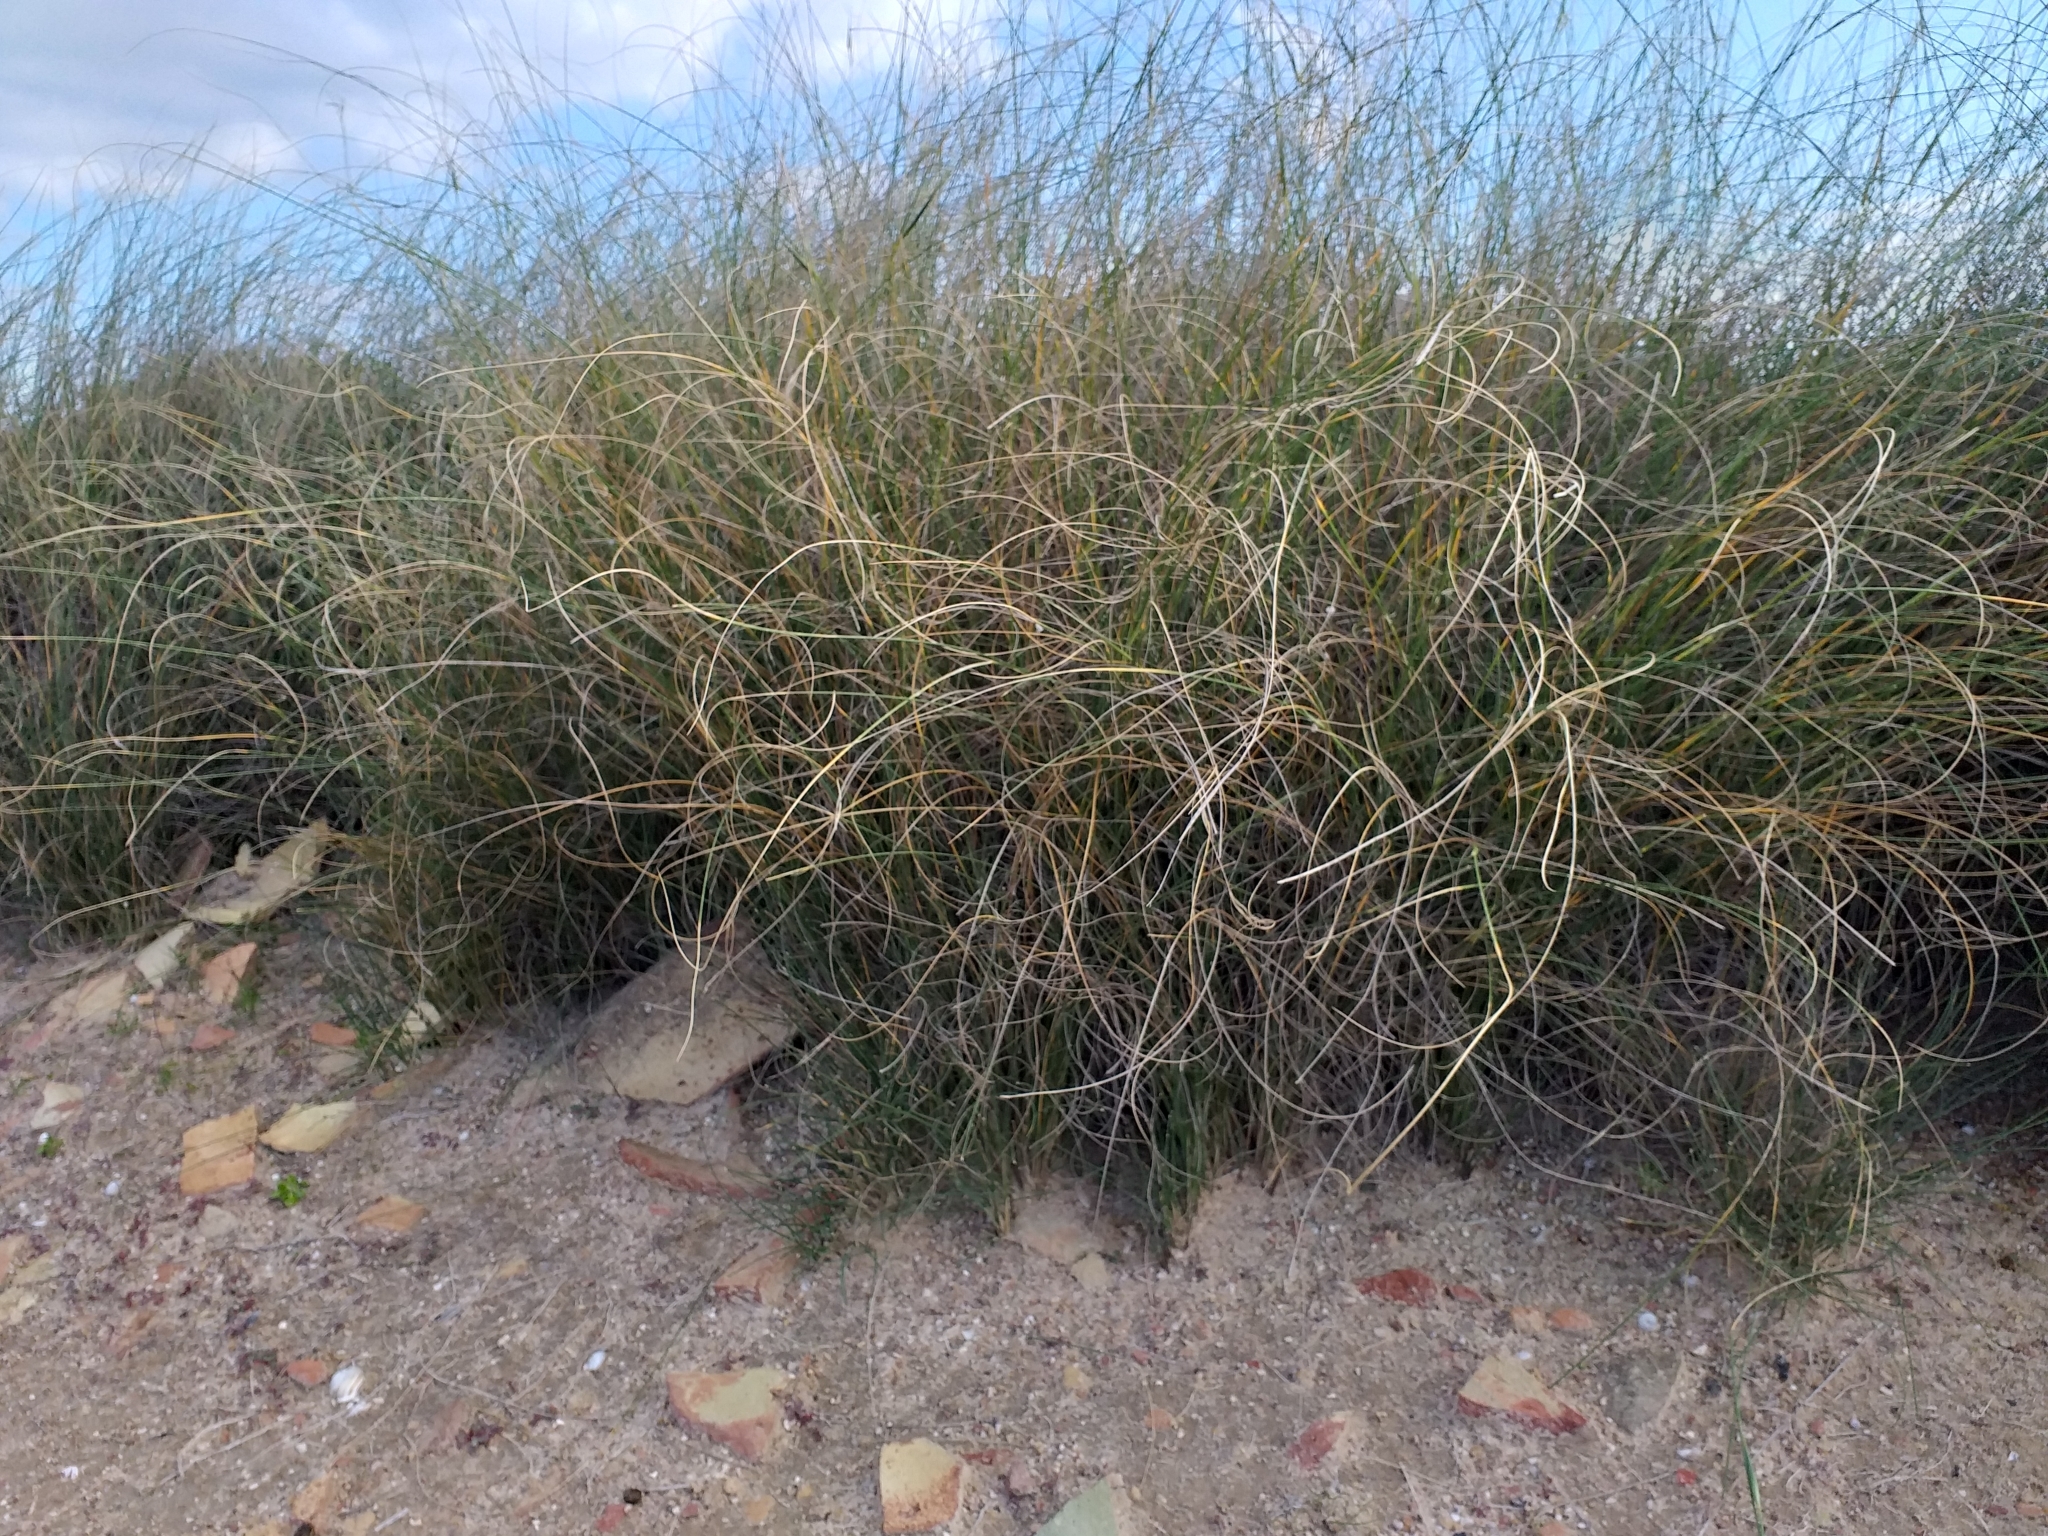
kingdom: Plantae
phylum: Tracheophyta
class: Liliopsida
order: Poales
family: Poaceae
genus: Lygeum
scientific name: Lygeum spartum
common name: Albardine
